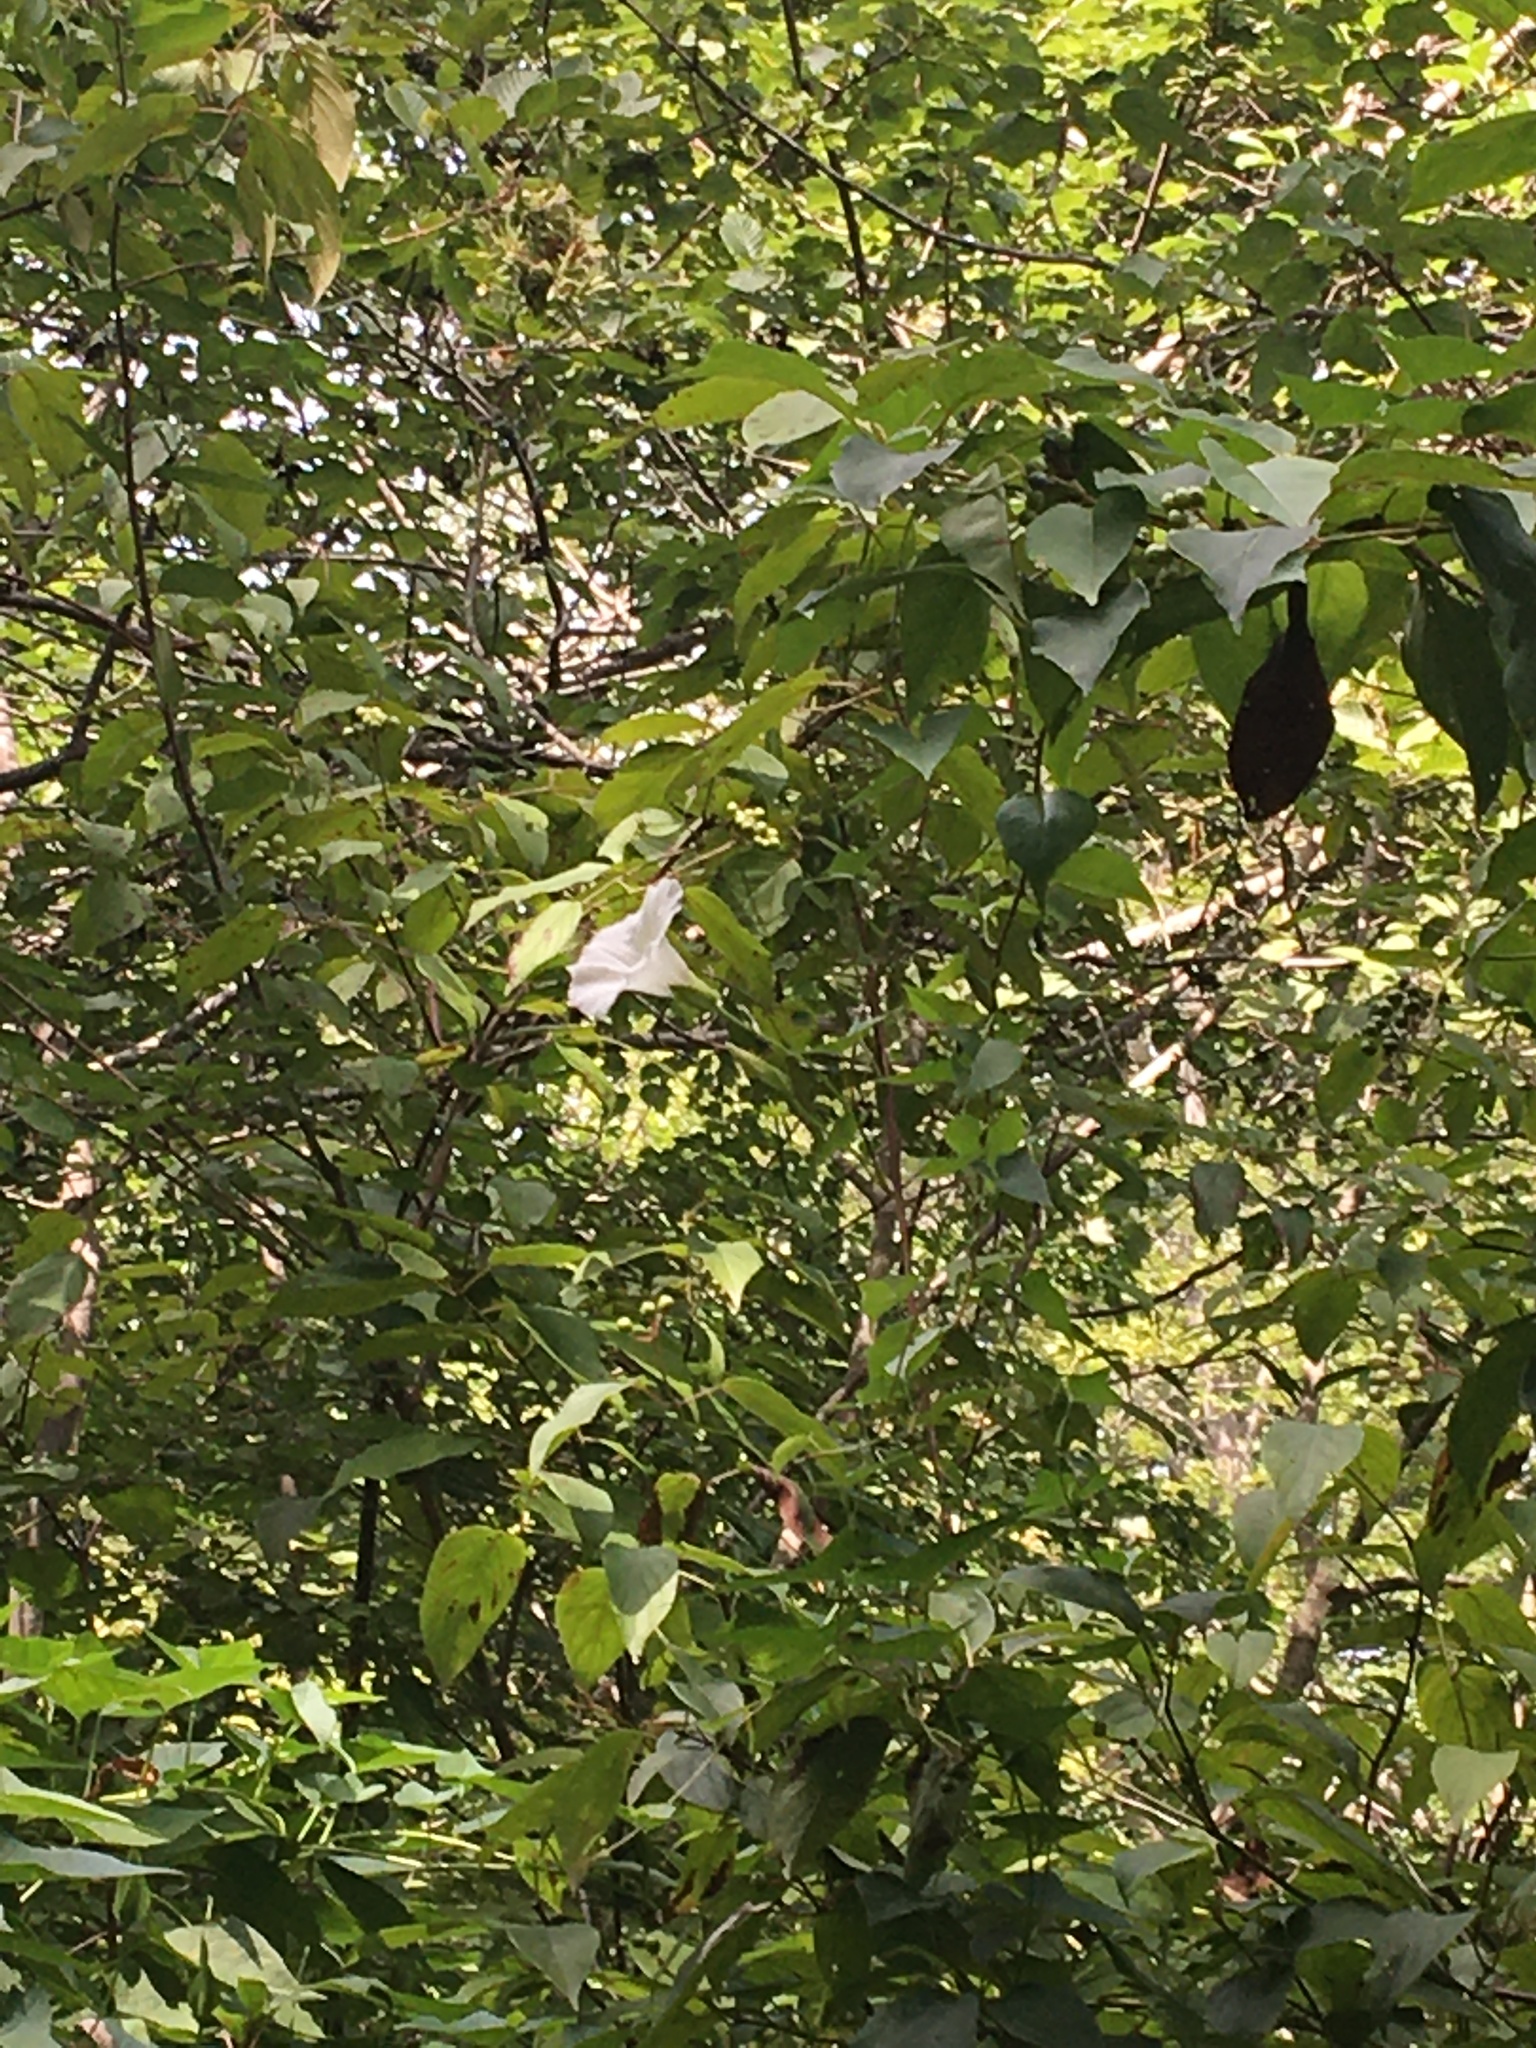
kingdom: Plantae
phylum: Tracheophyta
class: Magnoliopsida
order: Solanales
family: Convolvulaceae
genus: Calystegia
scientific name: Calystegia sepium
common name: Hedge bindweed
